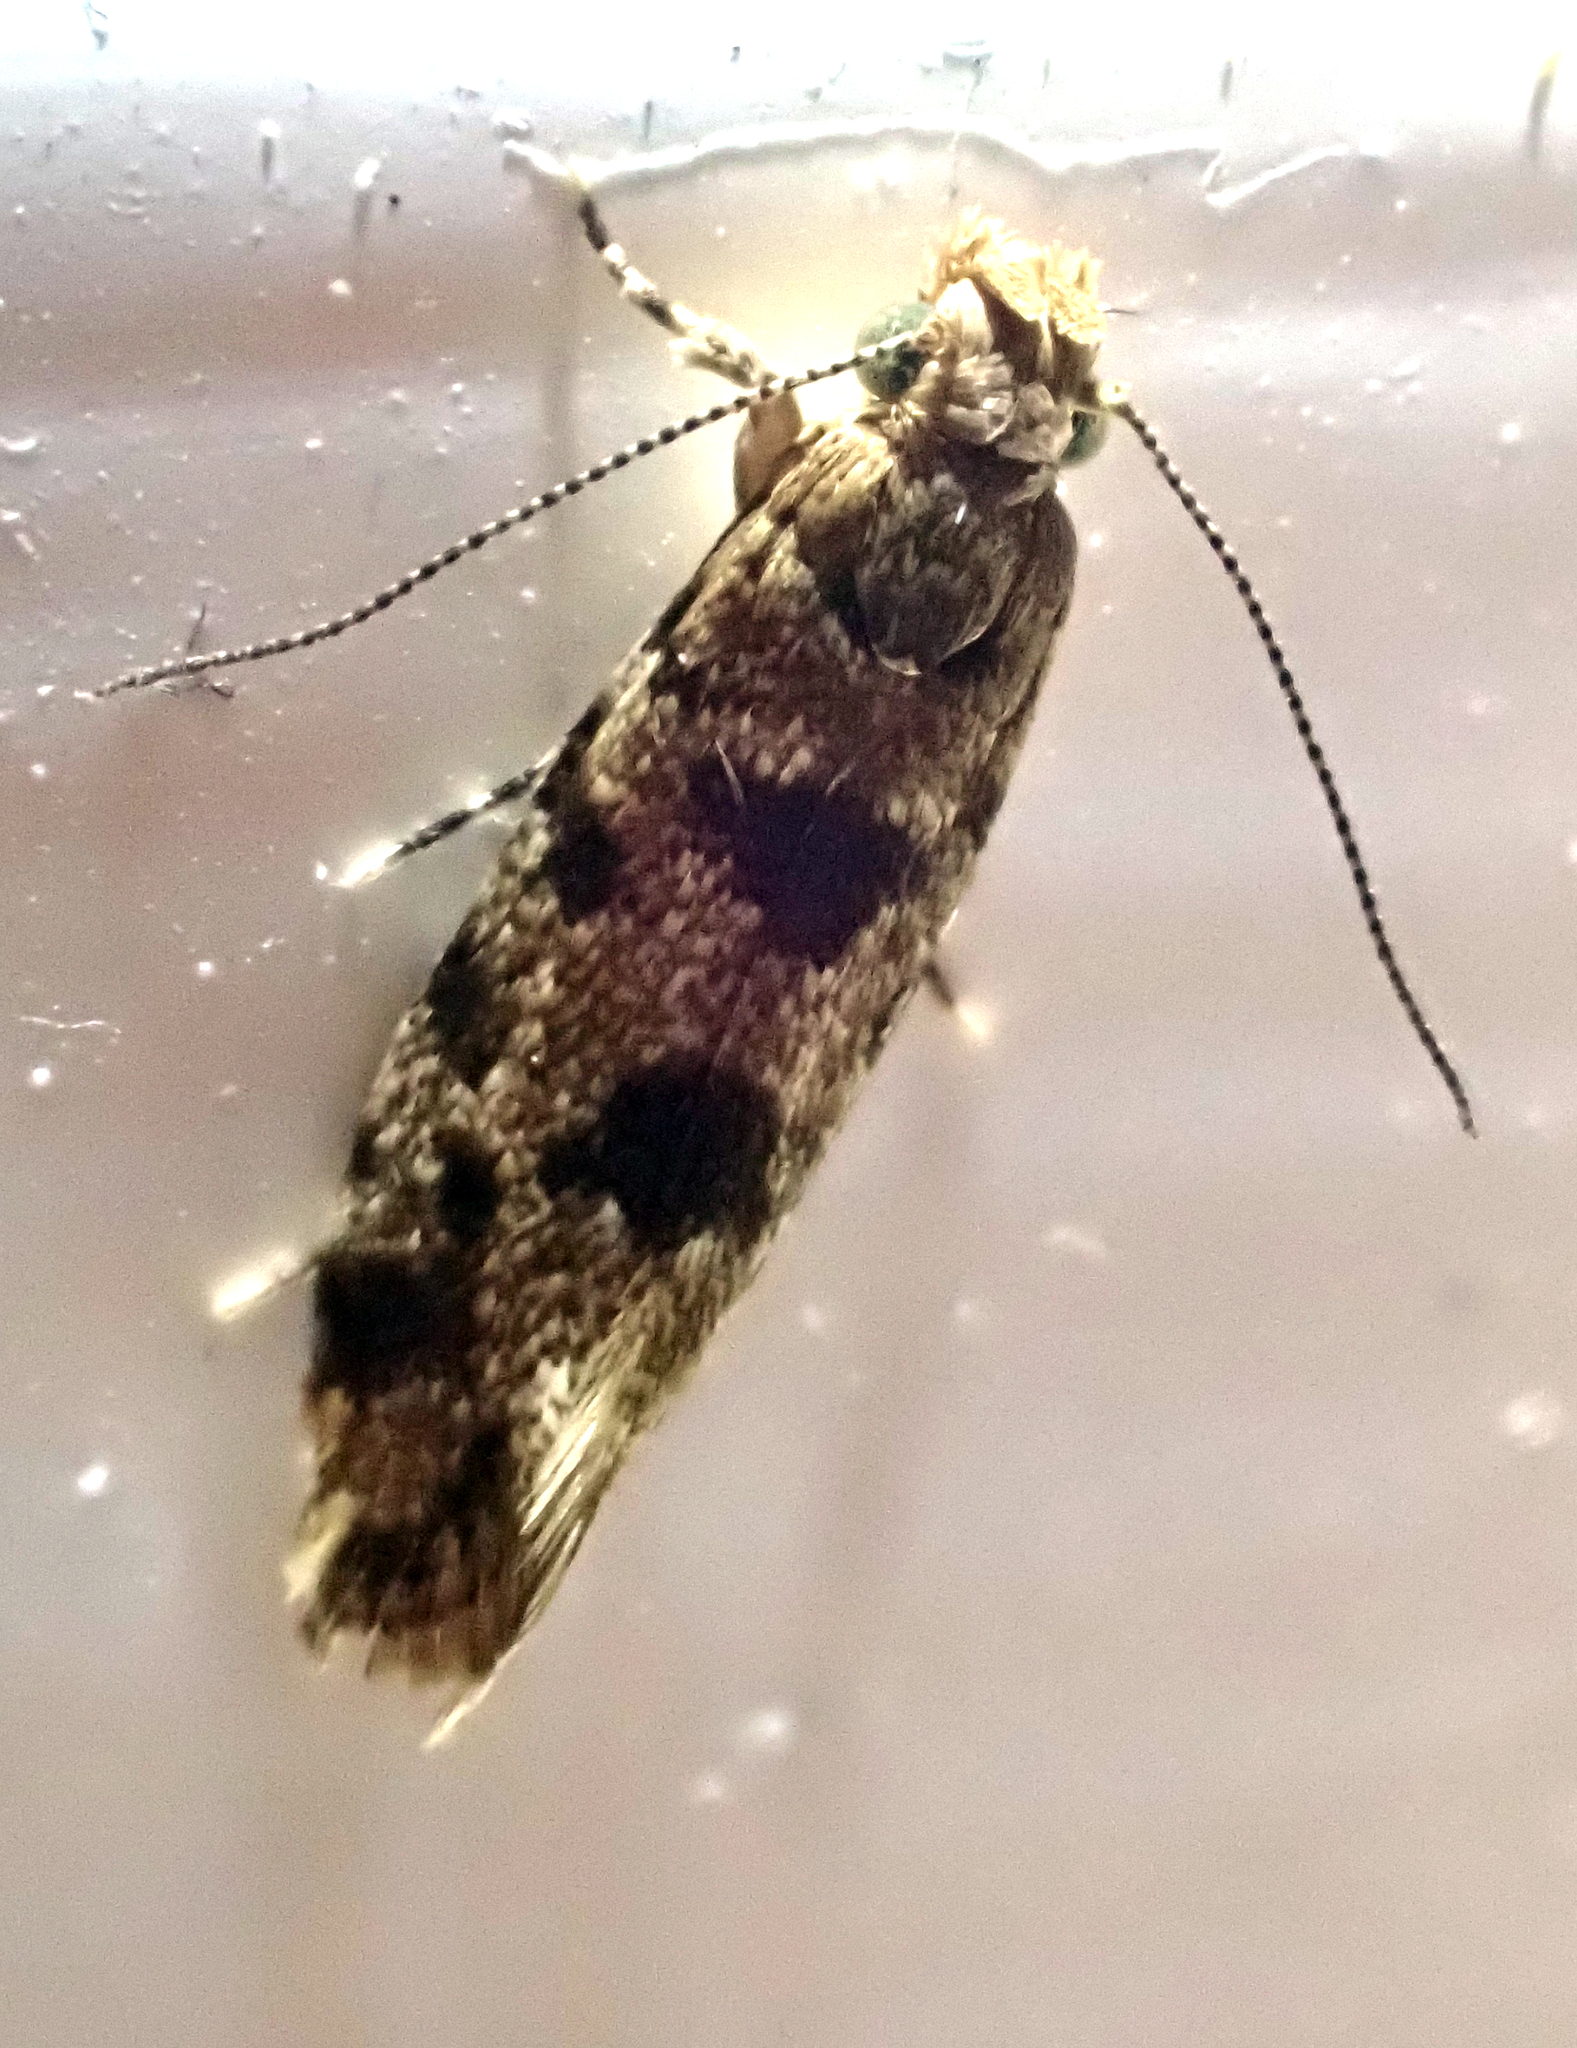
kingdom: Animalia
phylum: Arthropoda
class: Insecta
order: Lepidoptera
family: Tineidae
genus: Parochmastis
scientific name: Parochmastis hilderi
